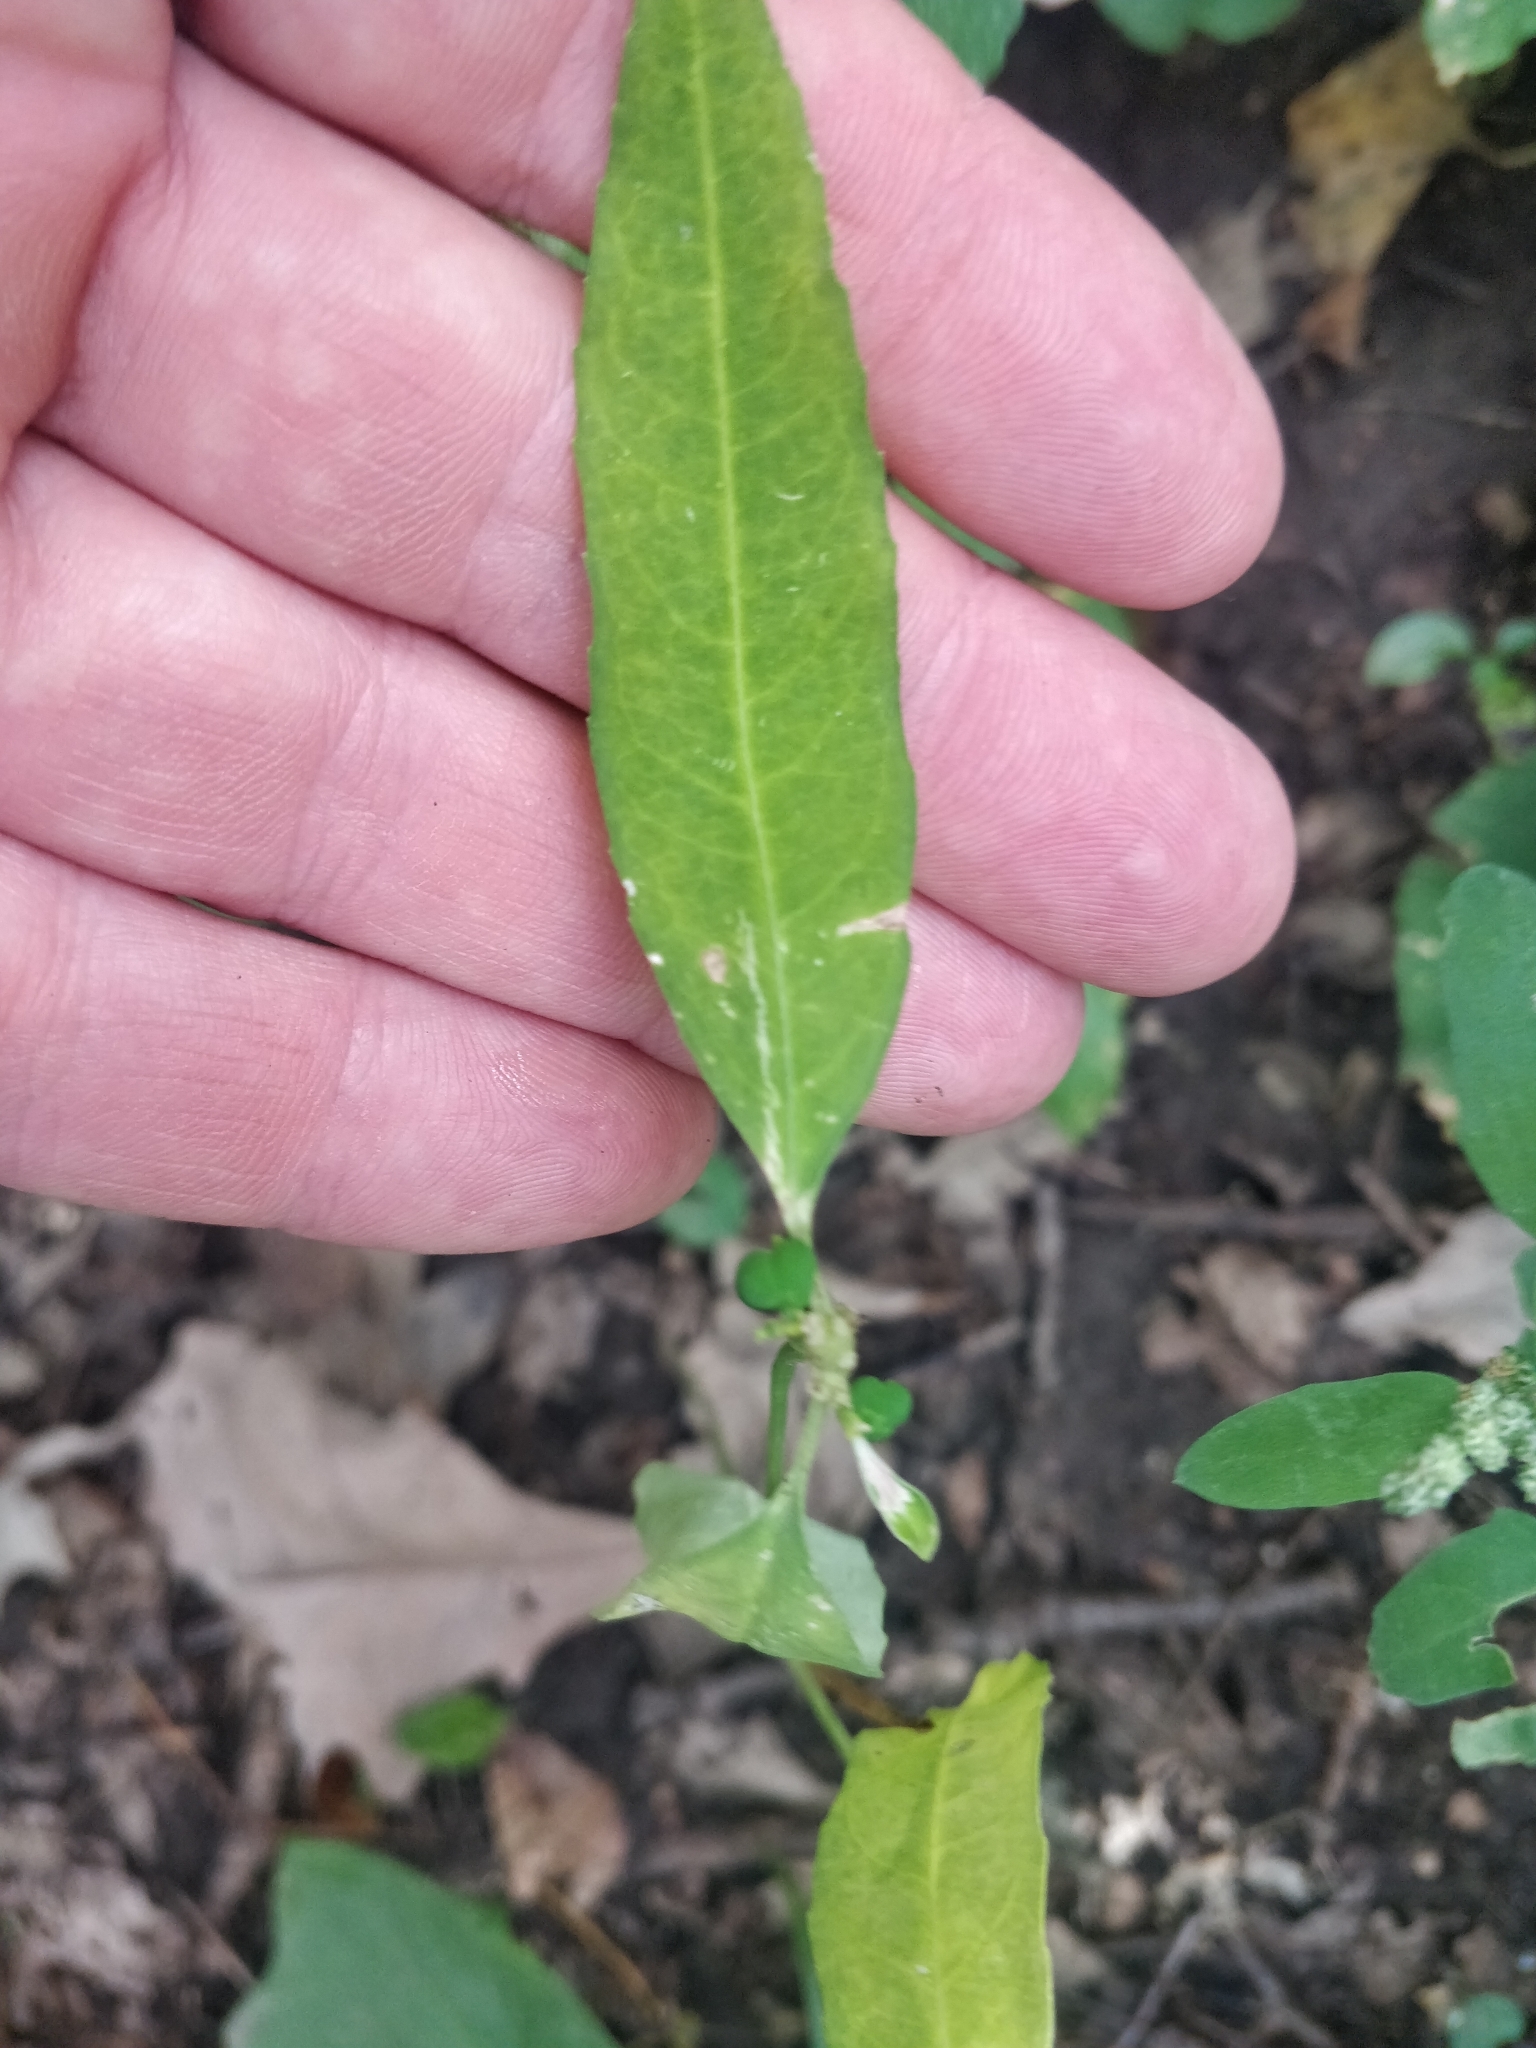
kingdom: Plantae
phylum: Tracheophyta
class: Magnoliopsida
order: Malpighiales
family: Euphorbiaceae
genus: Euphorbia
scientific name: Euphorbia heterophylla
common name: Mexican fireplant
